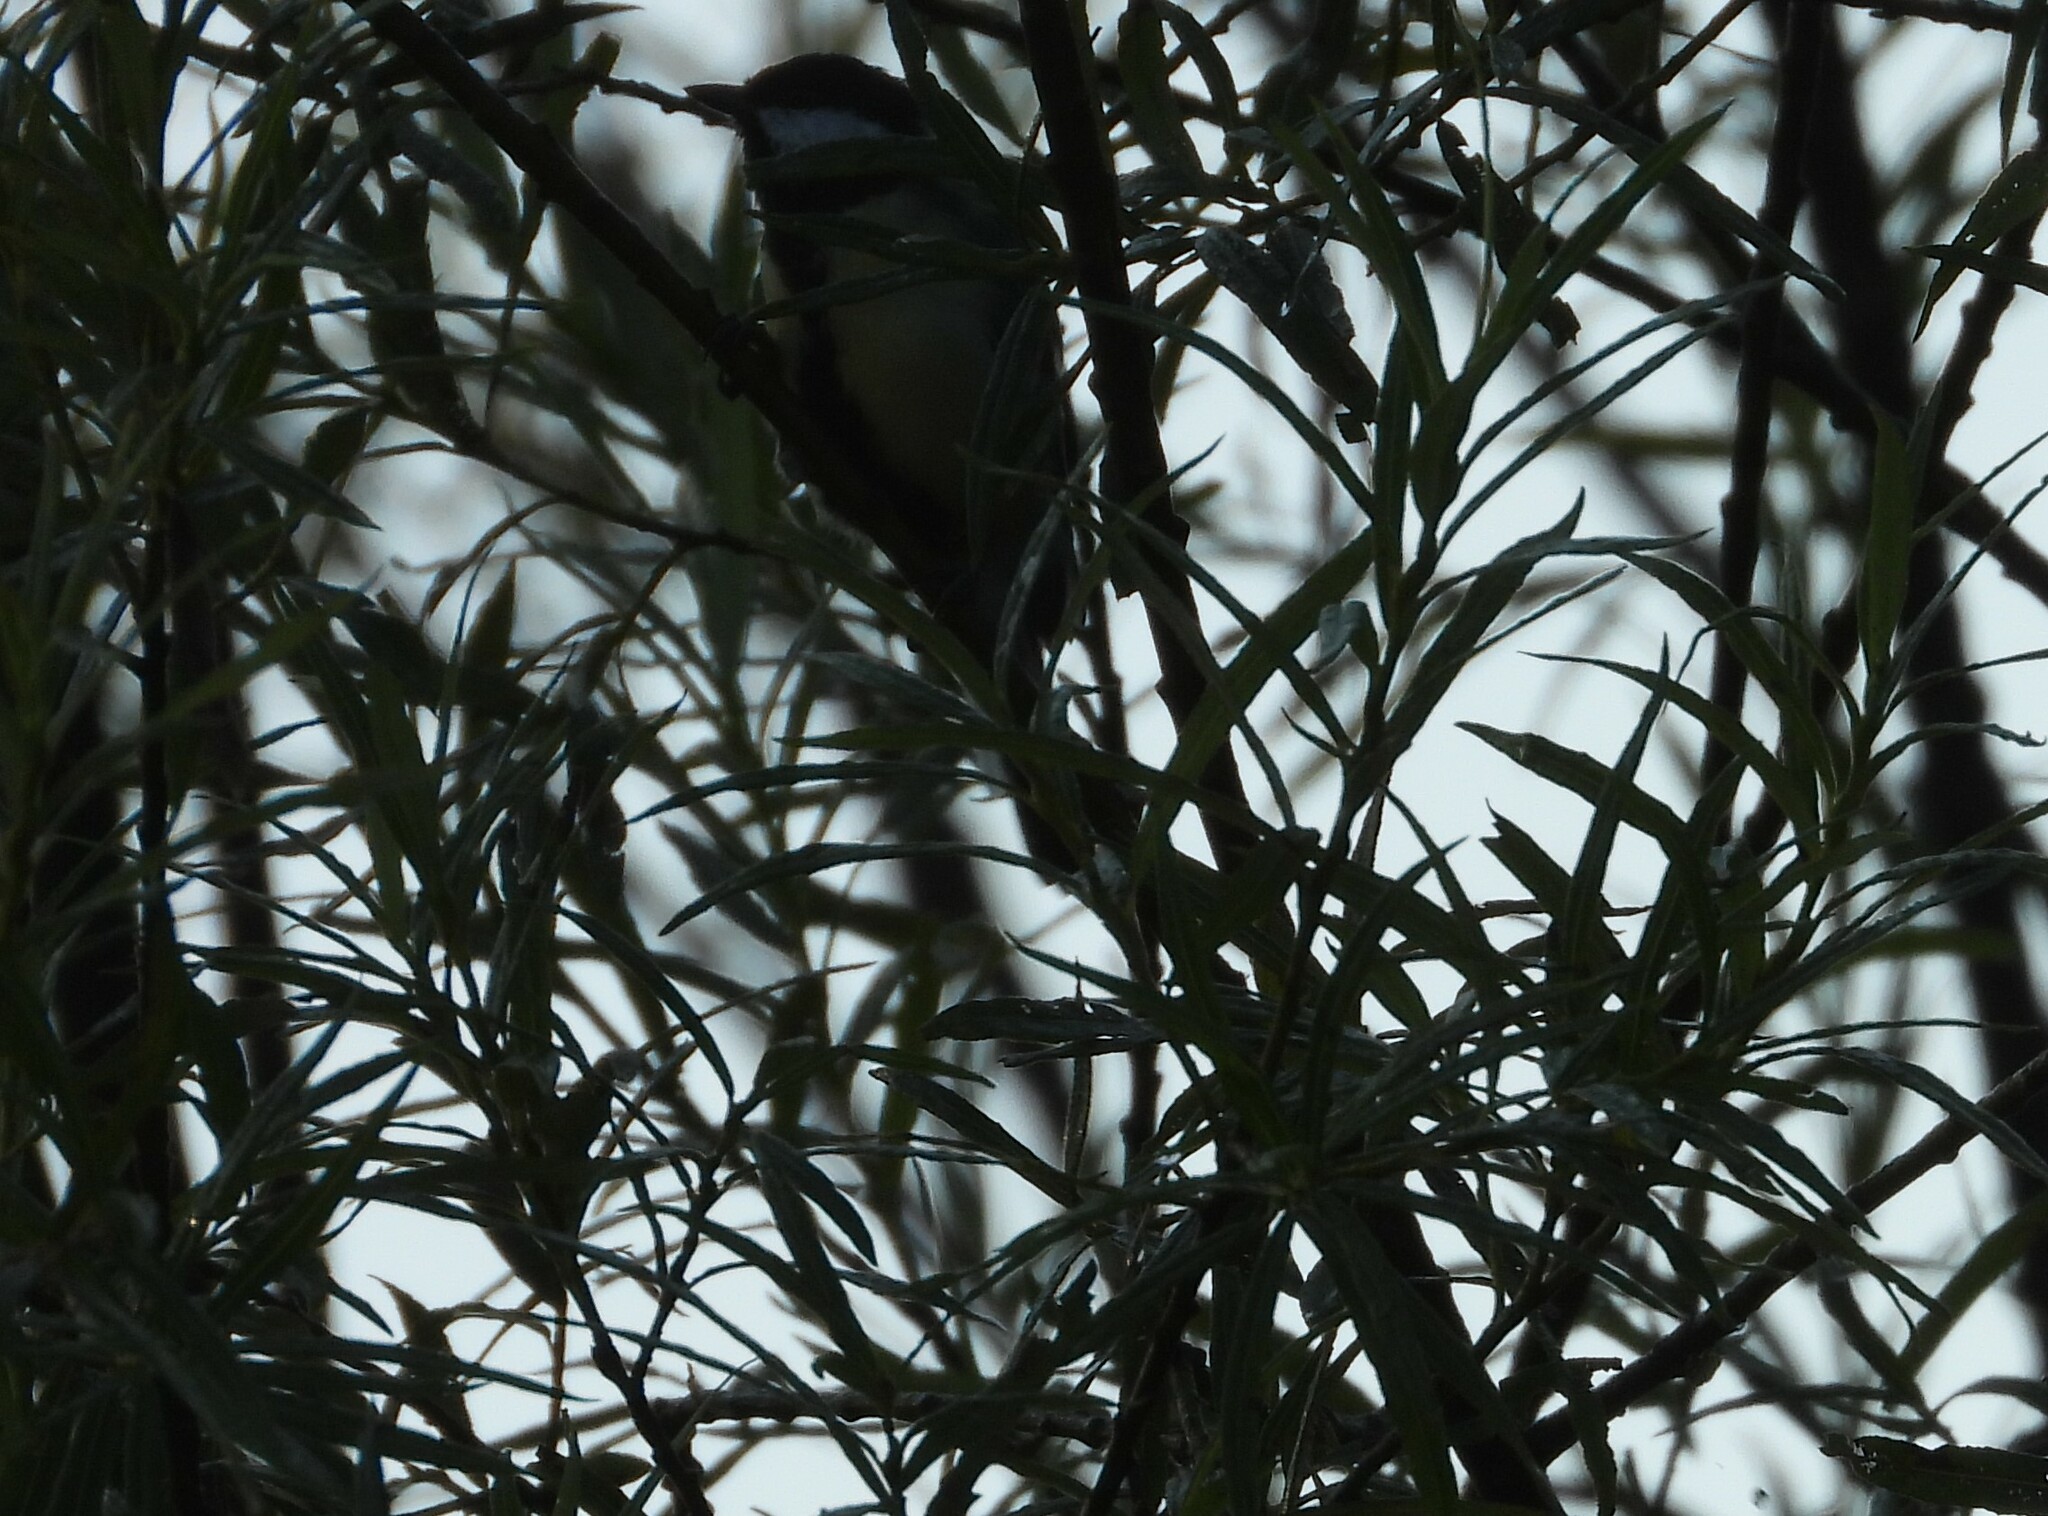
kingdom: Animalia
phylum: Chordata
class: Aves
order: Passeriformes
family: Paridae
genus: Parus
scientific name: Parus major
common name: Great tit
